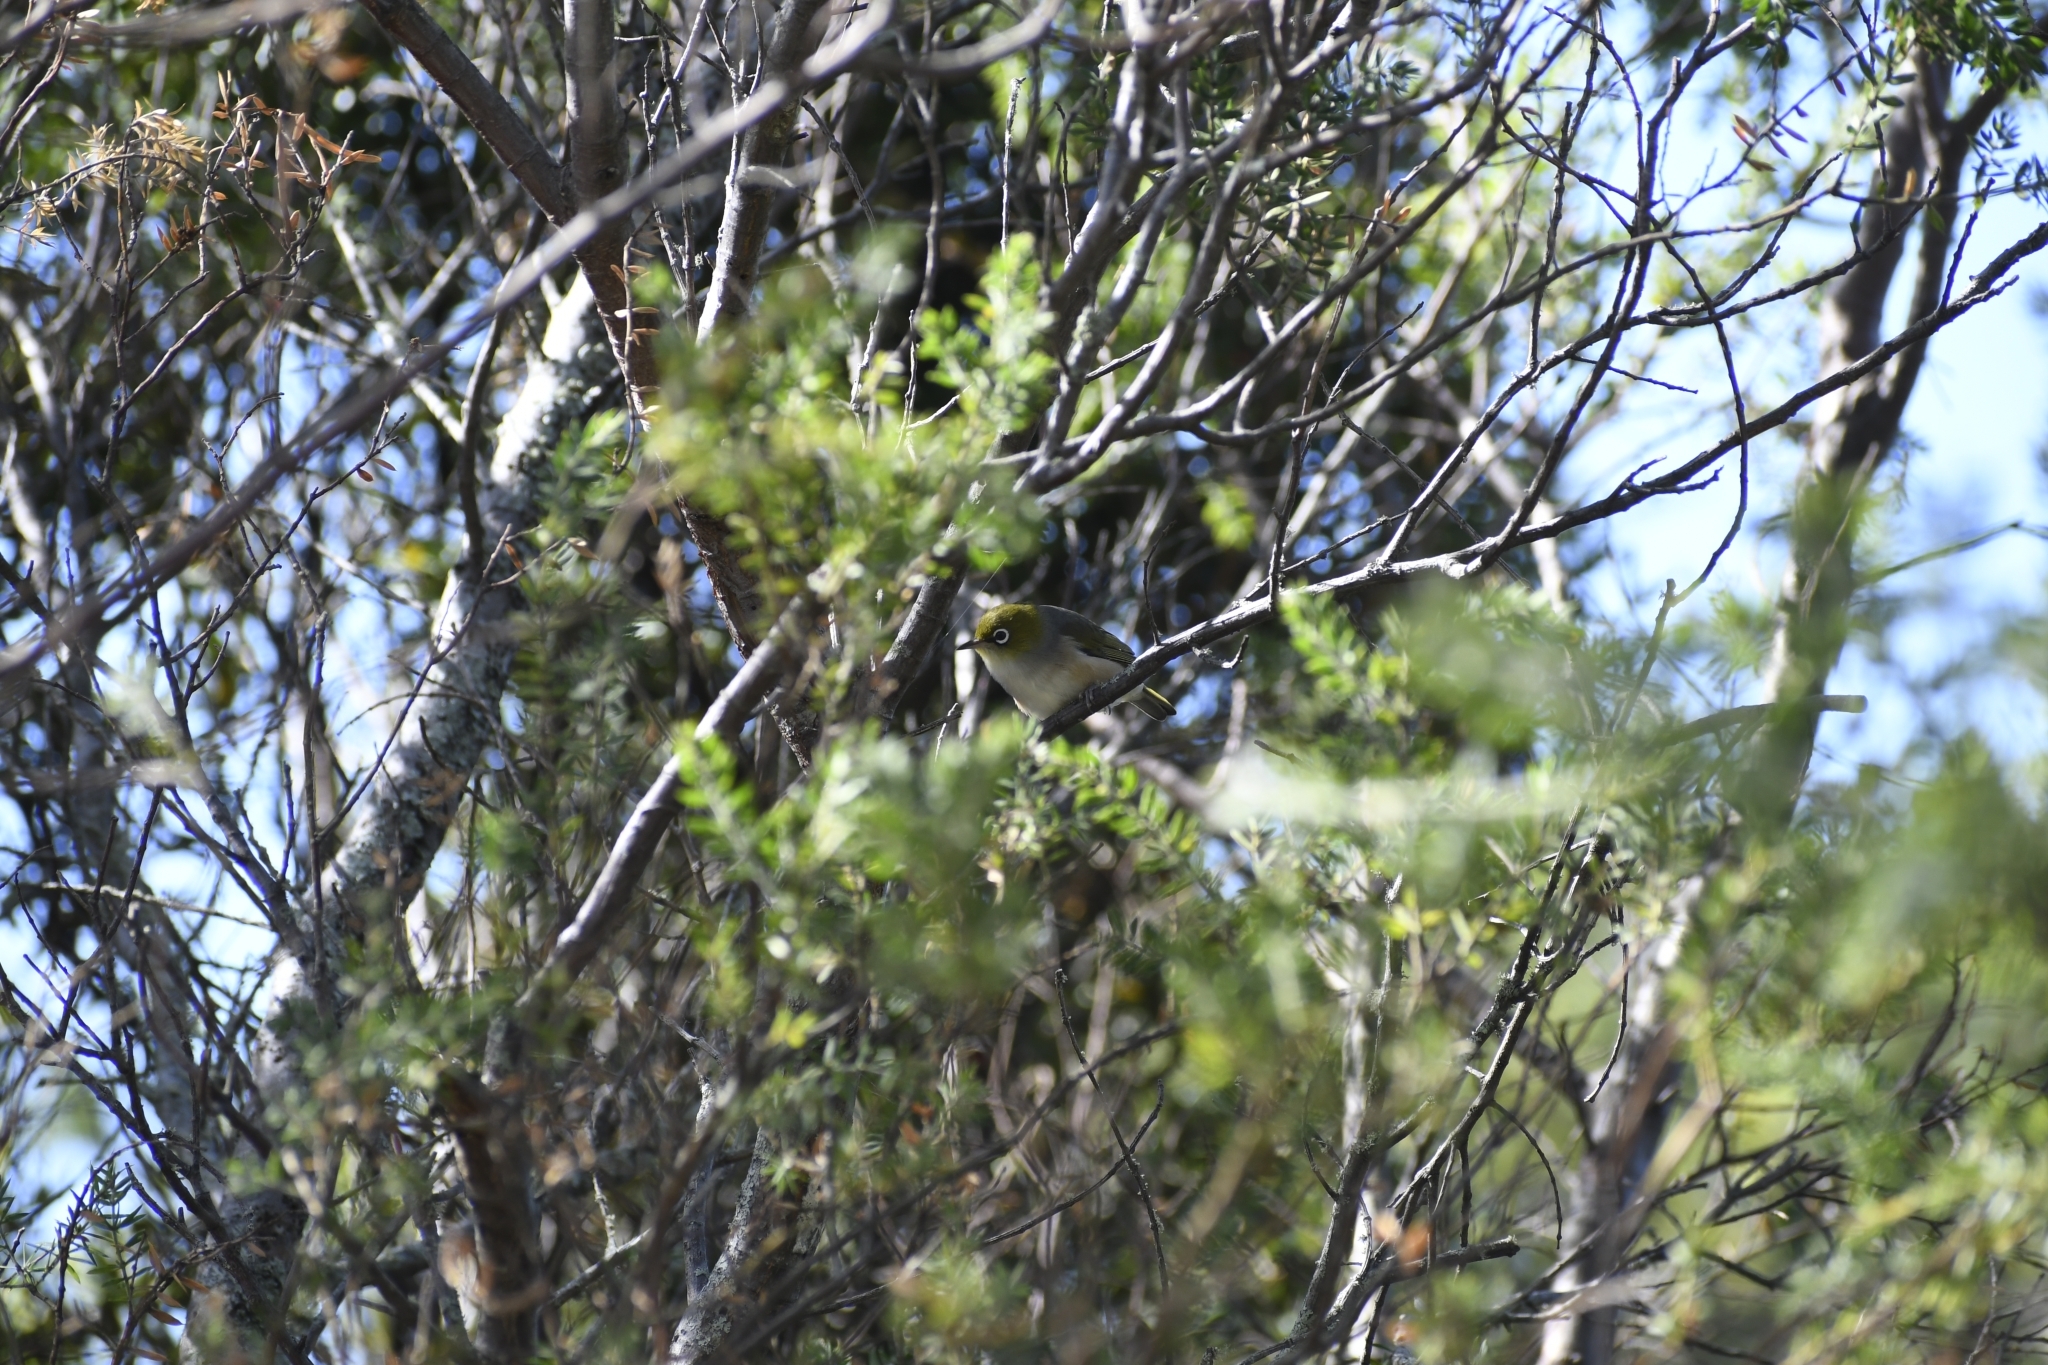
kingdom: Animalia
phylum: Chordata
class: Aves
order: Passeriformes
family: Zosteropidae
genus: Zosterops
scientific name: Zosterops lateralis
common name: Silvereye
